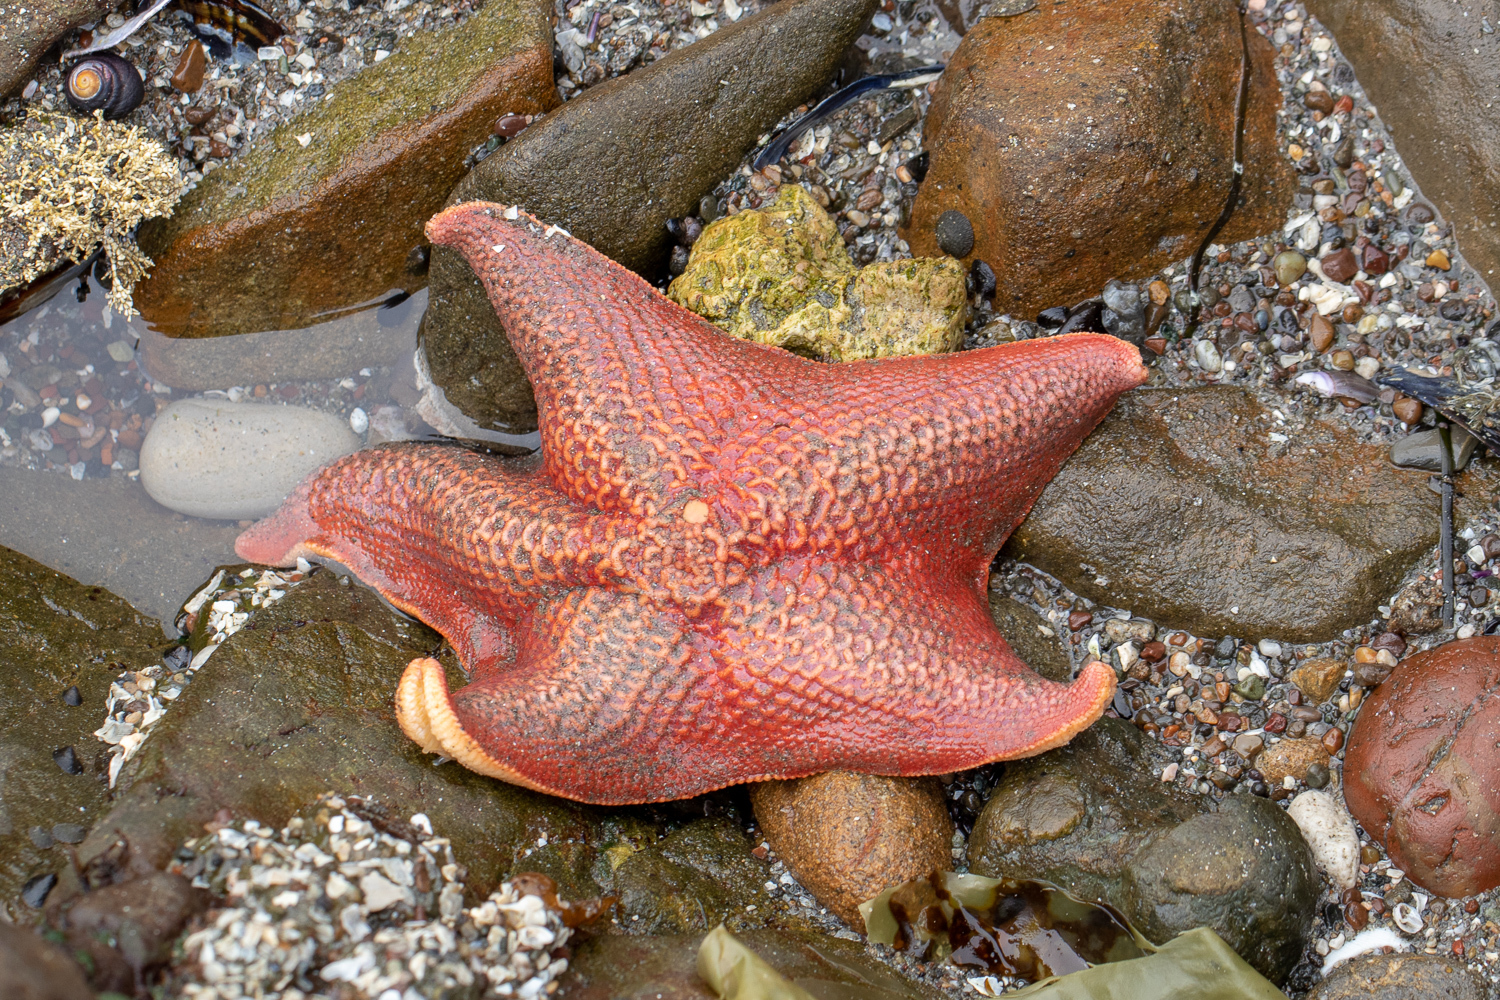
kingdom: Animalia
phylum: Echinodermata
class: Asteroidea
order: Valvatida
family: Asterinidae
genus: Patiria
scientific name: Patiria miniata
